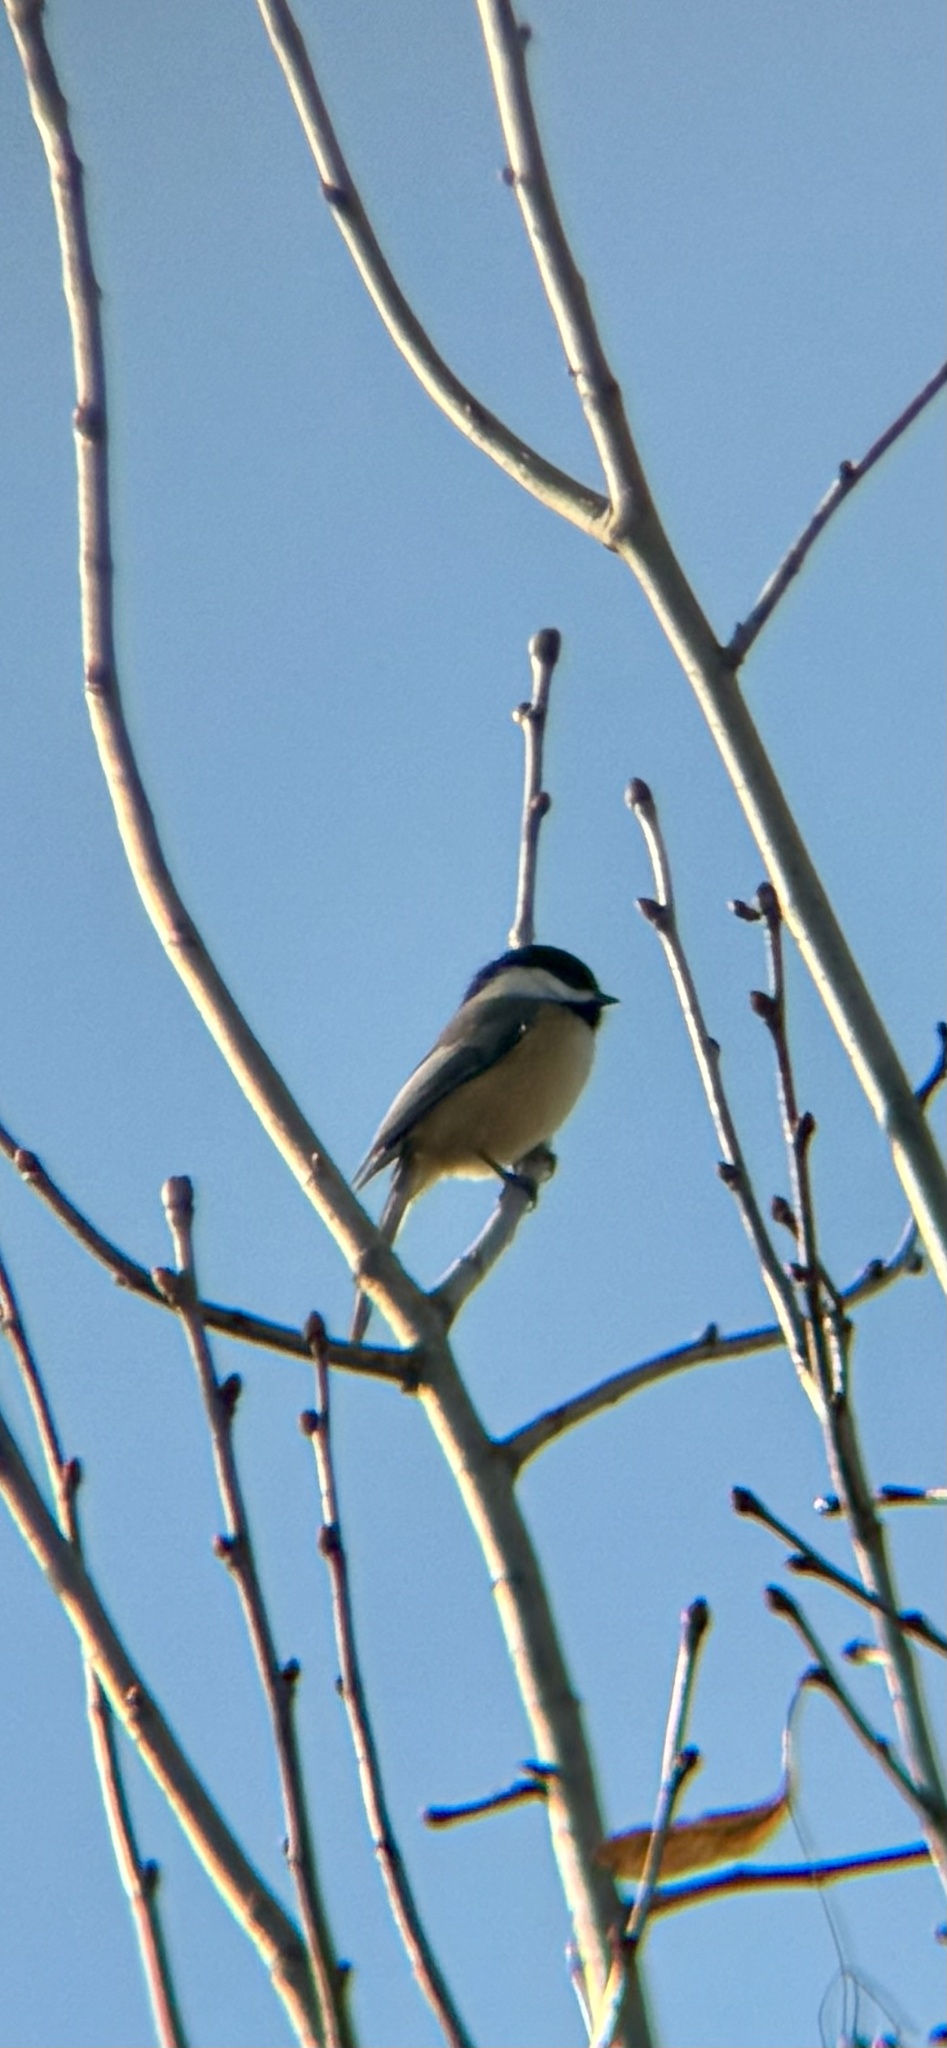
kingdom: Animalia
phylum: Chordata
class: Aves
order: Passeriformes
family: Paridae
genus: Poecile
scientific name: Poecile atricapillus
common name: Black-capped chickadee
